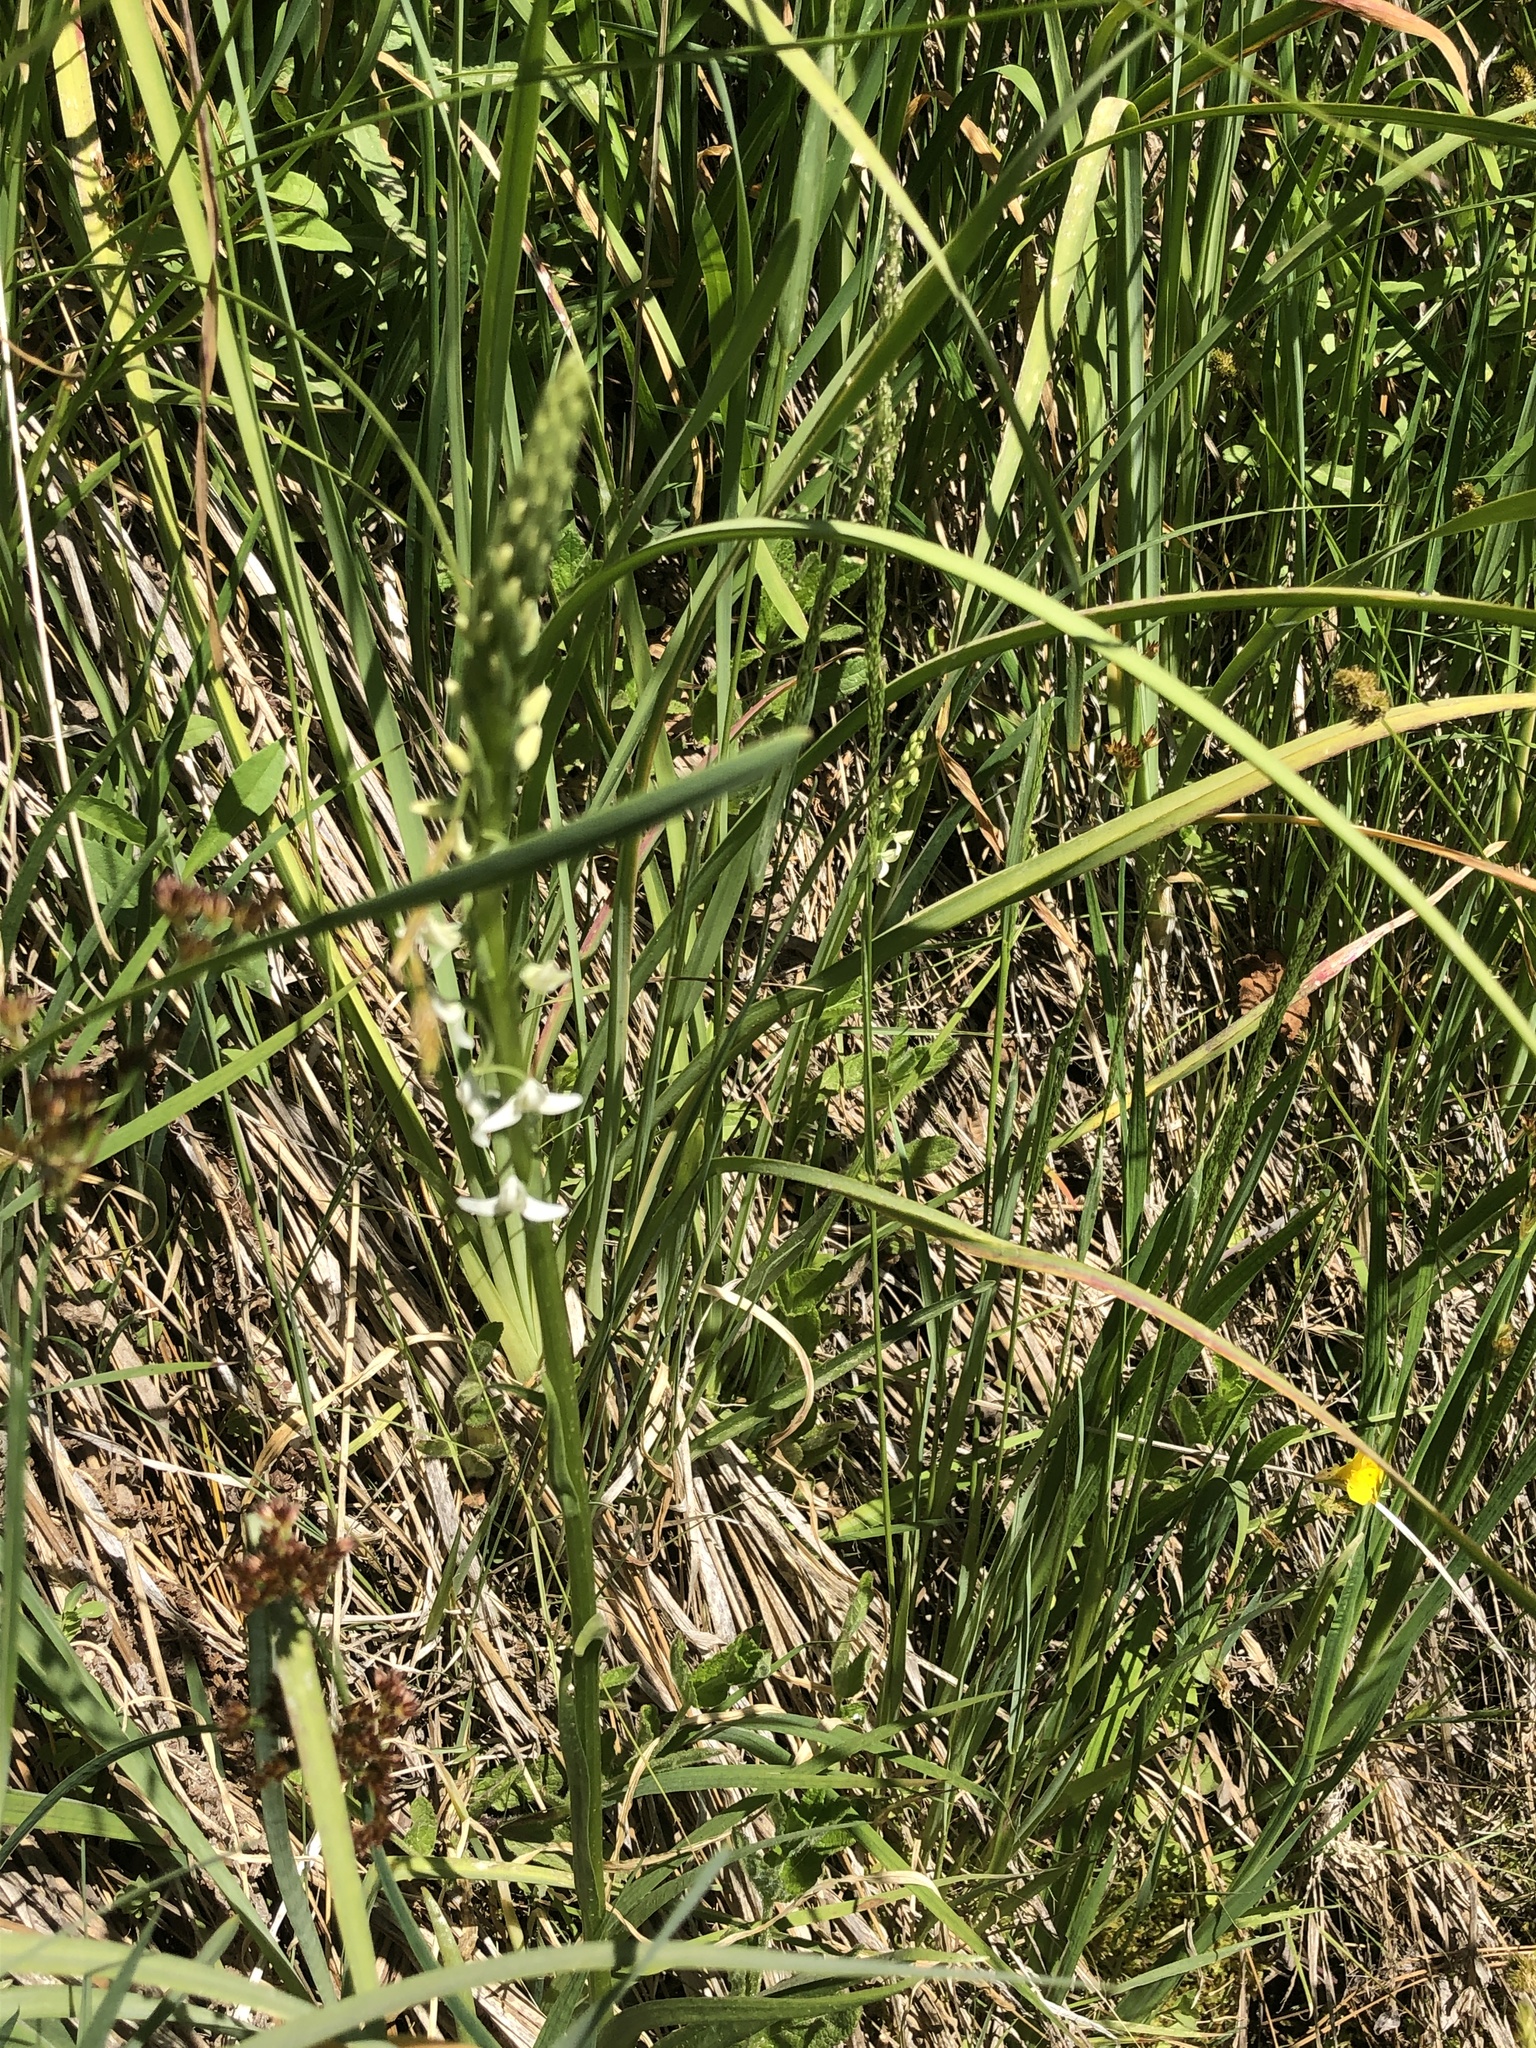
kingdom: Plantae
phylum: Tracheophyta
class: Liliopsida
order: Asparagales
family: Orchidaceae
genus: Platanthera
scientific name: Platanthera dilatata
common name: Bog candles
